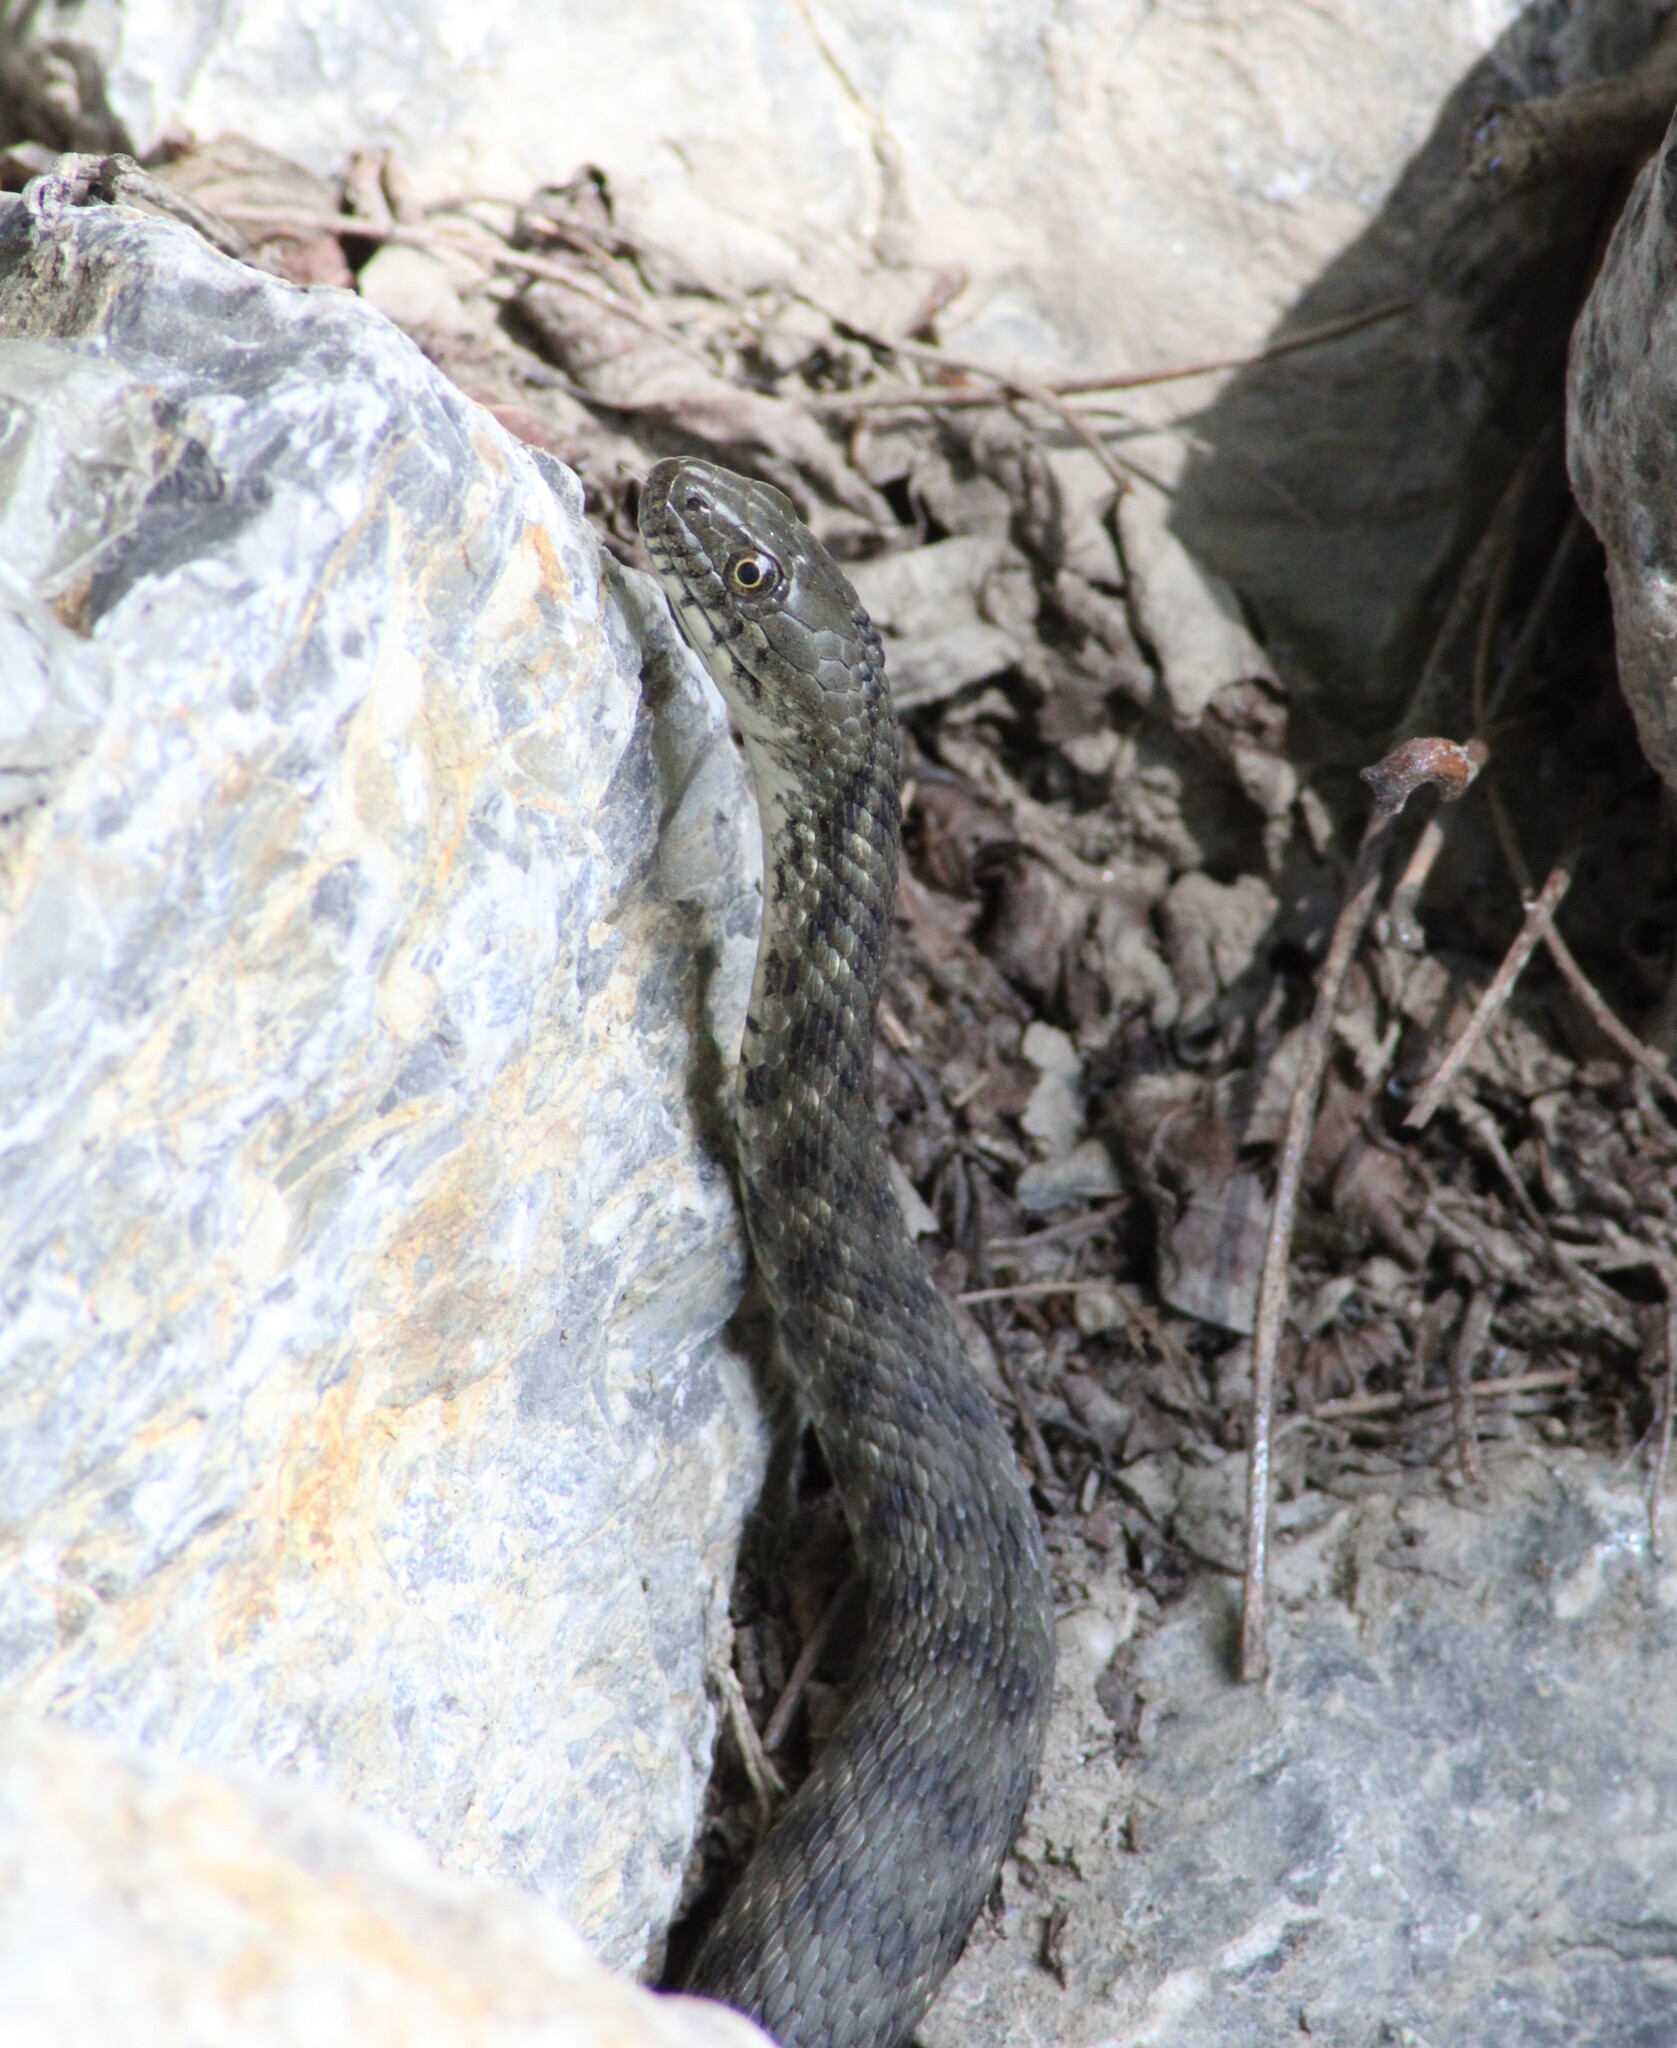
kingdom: Animalia
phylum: Chordata
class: Squamata
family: Colubridae
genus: Natrix
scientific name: Natrix tessellata
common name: Dice snake
